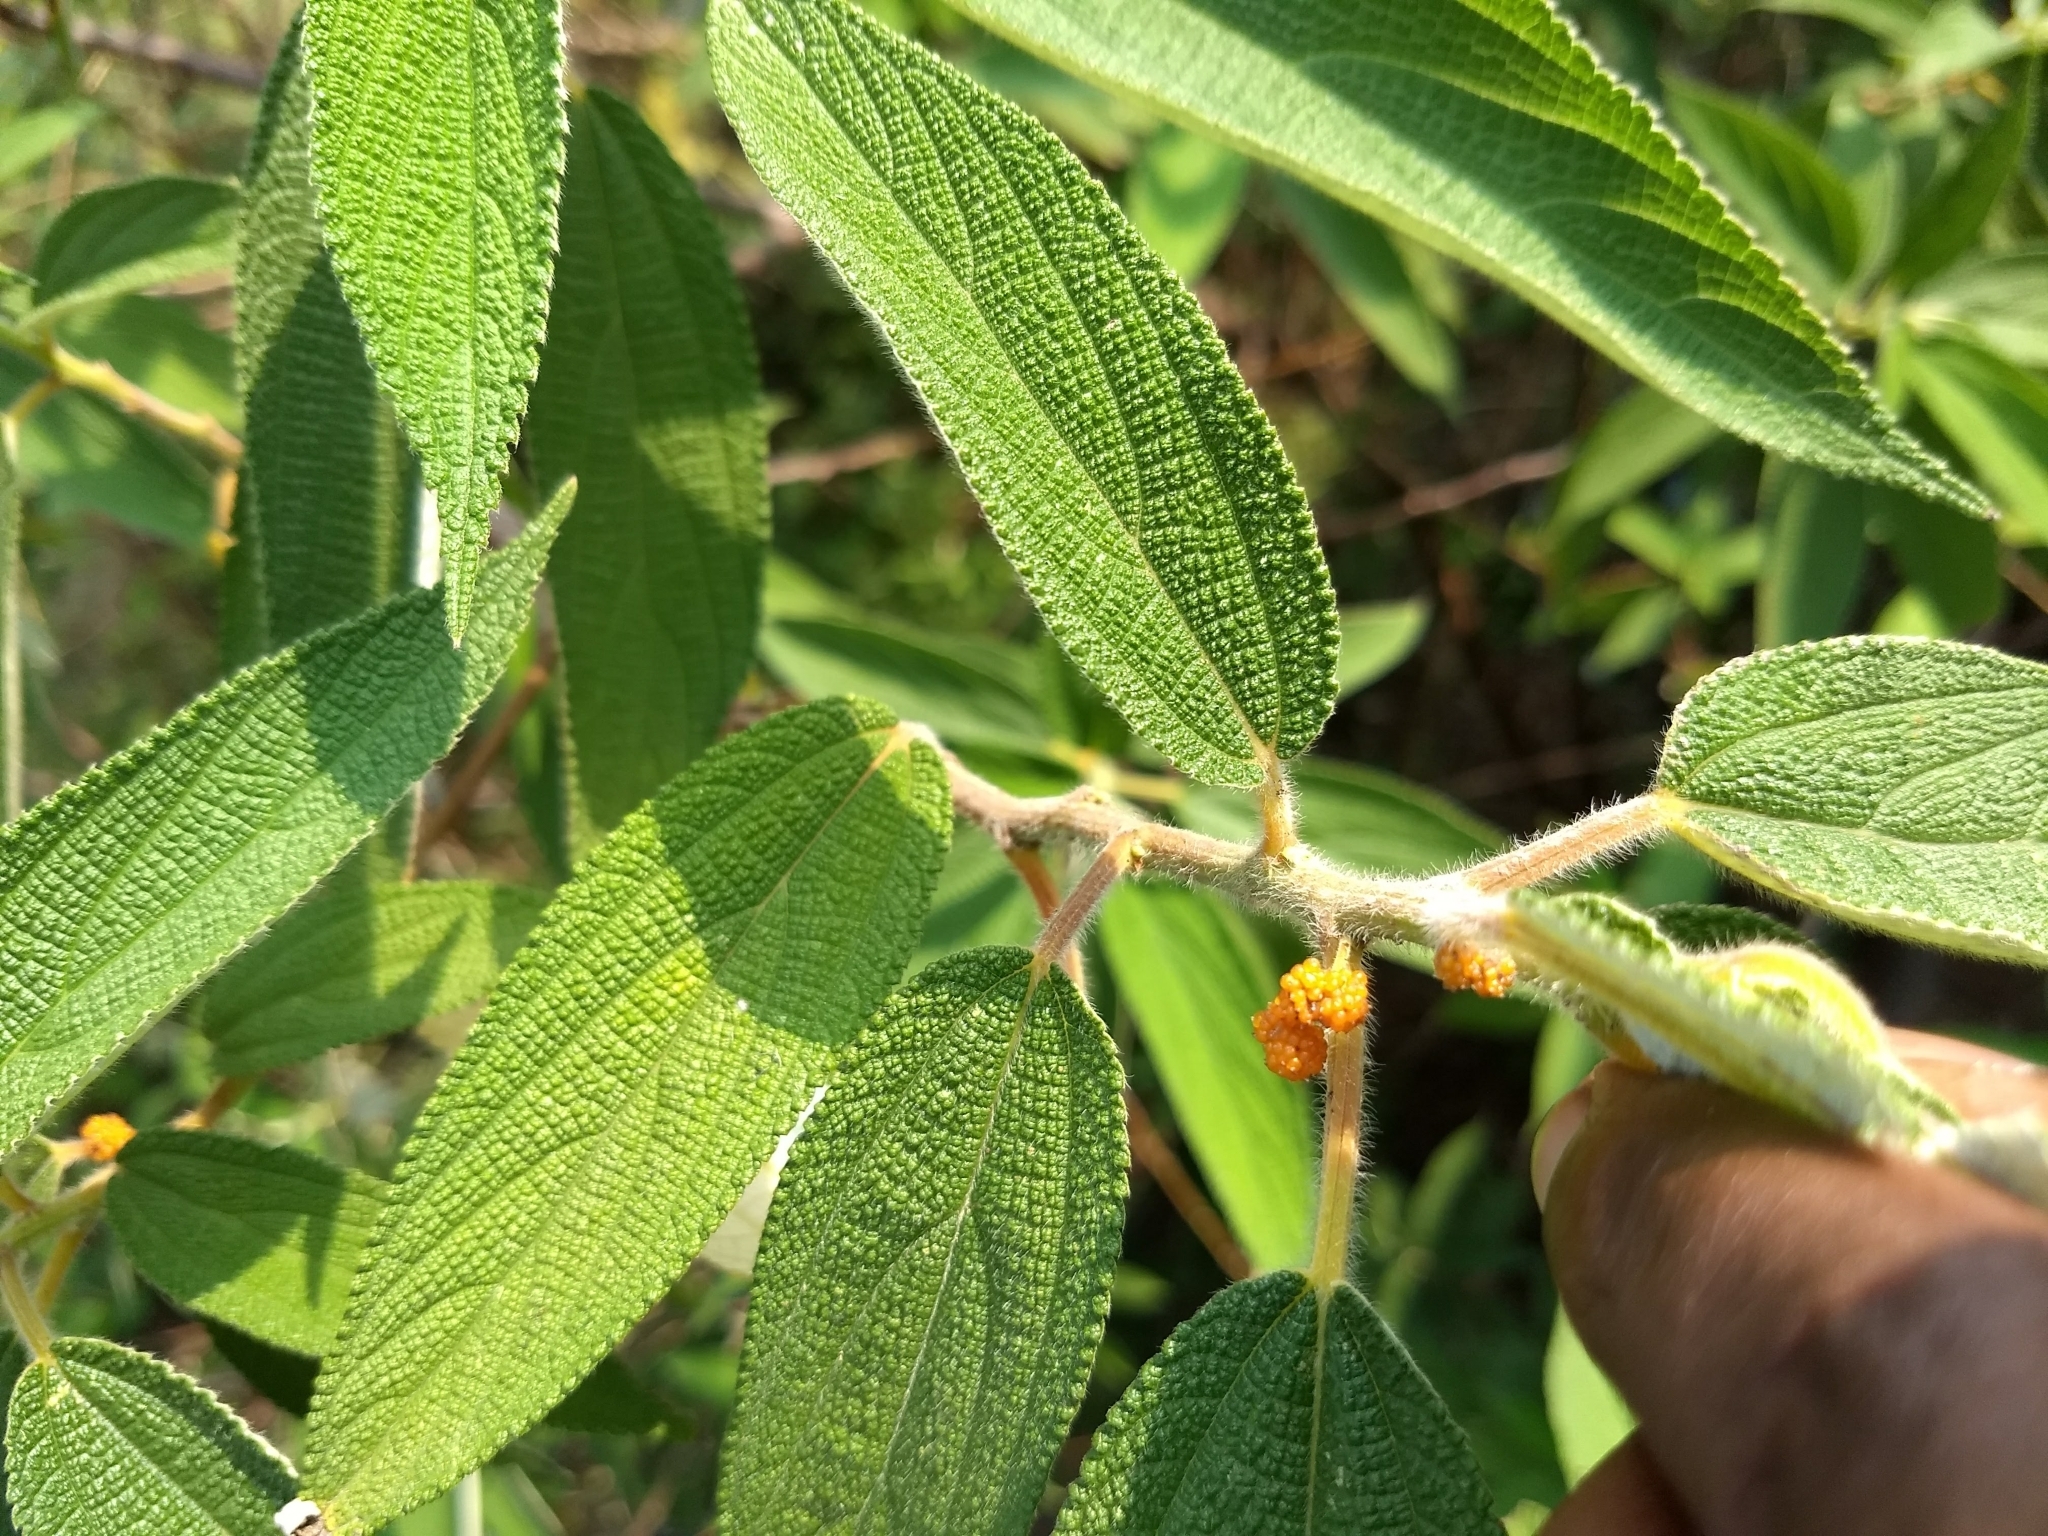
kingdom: Plantae
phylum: Tracheophyta
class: Magnoliopsida
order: Rosales
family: Urticaceae
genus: Debregeasia
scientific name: Debregeasia longifolia
